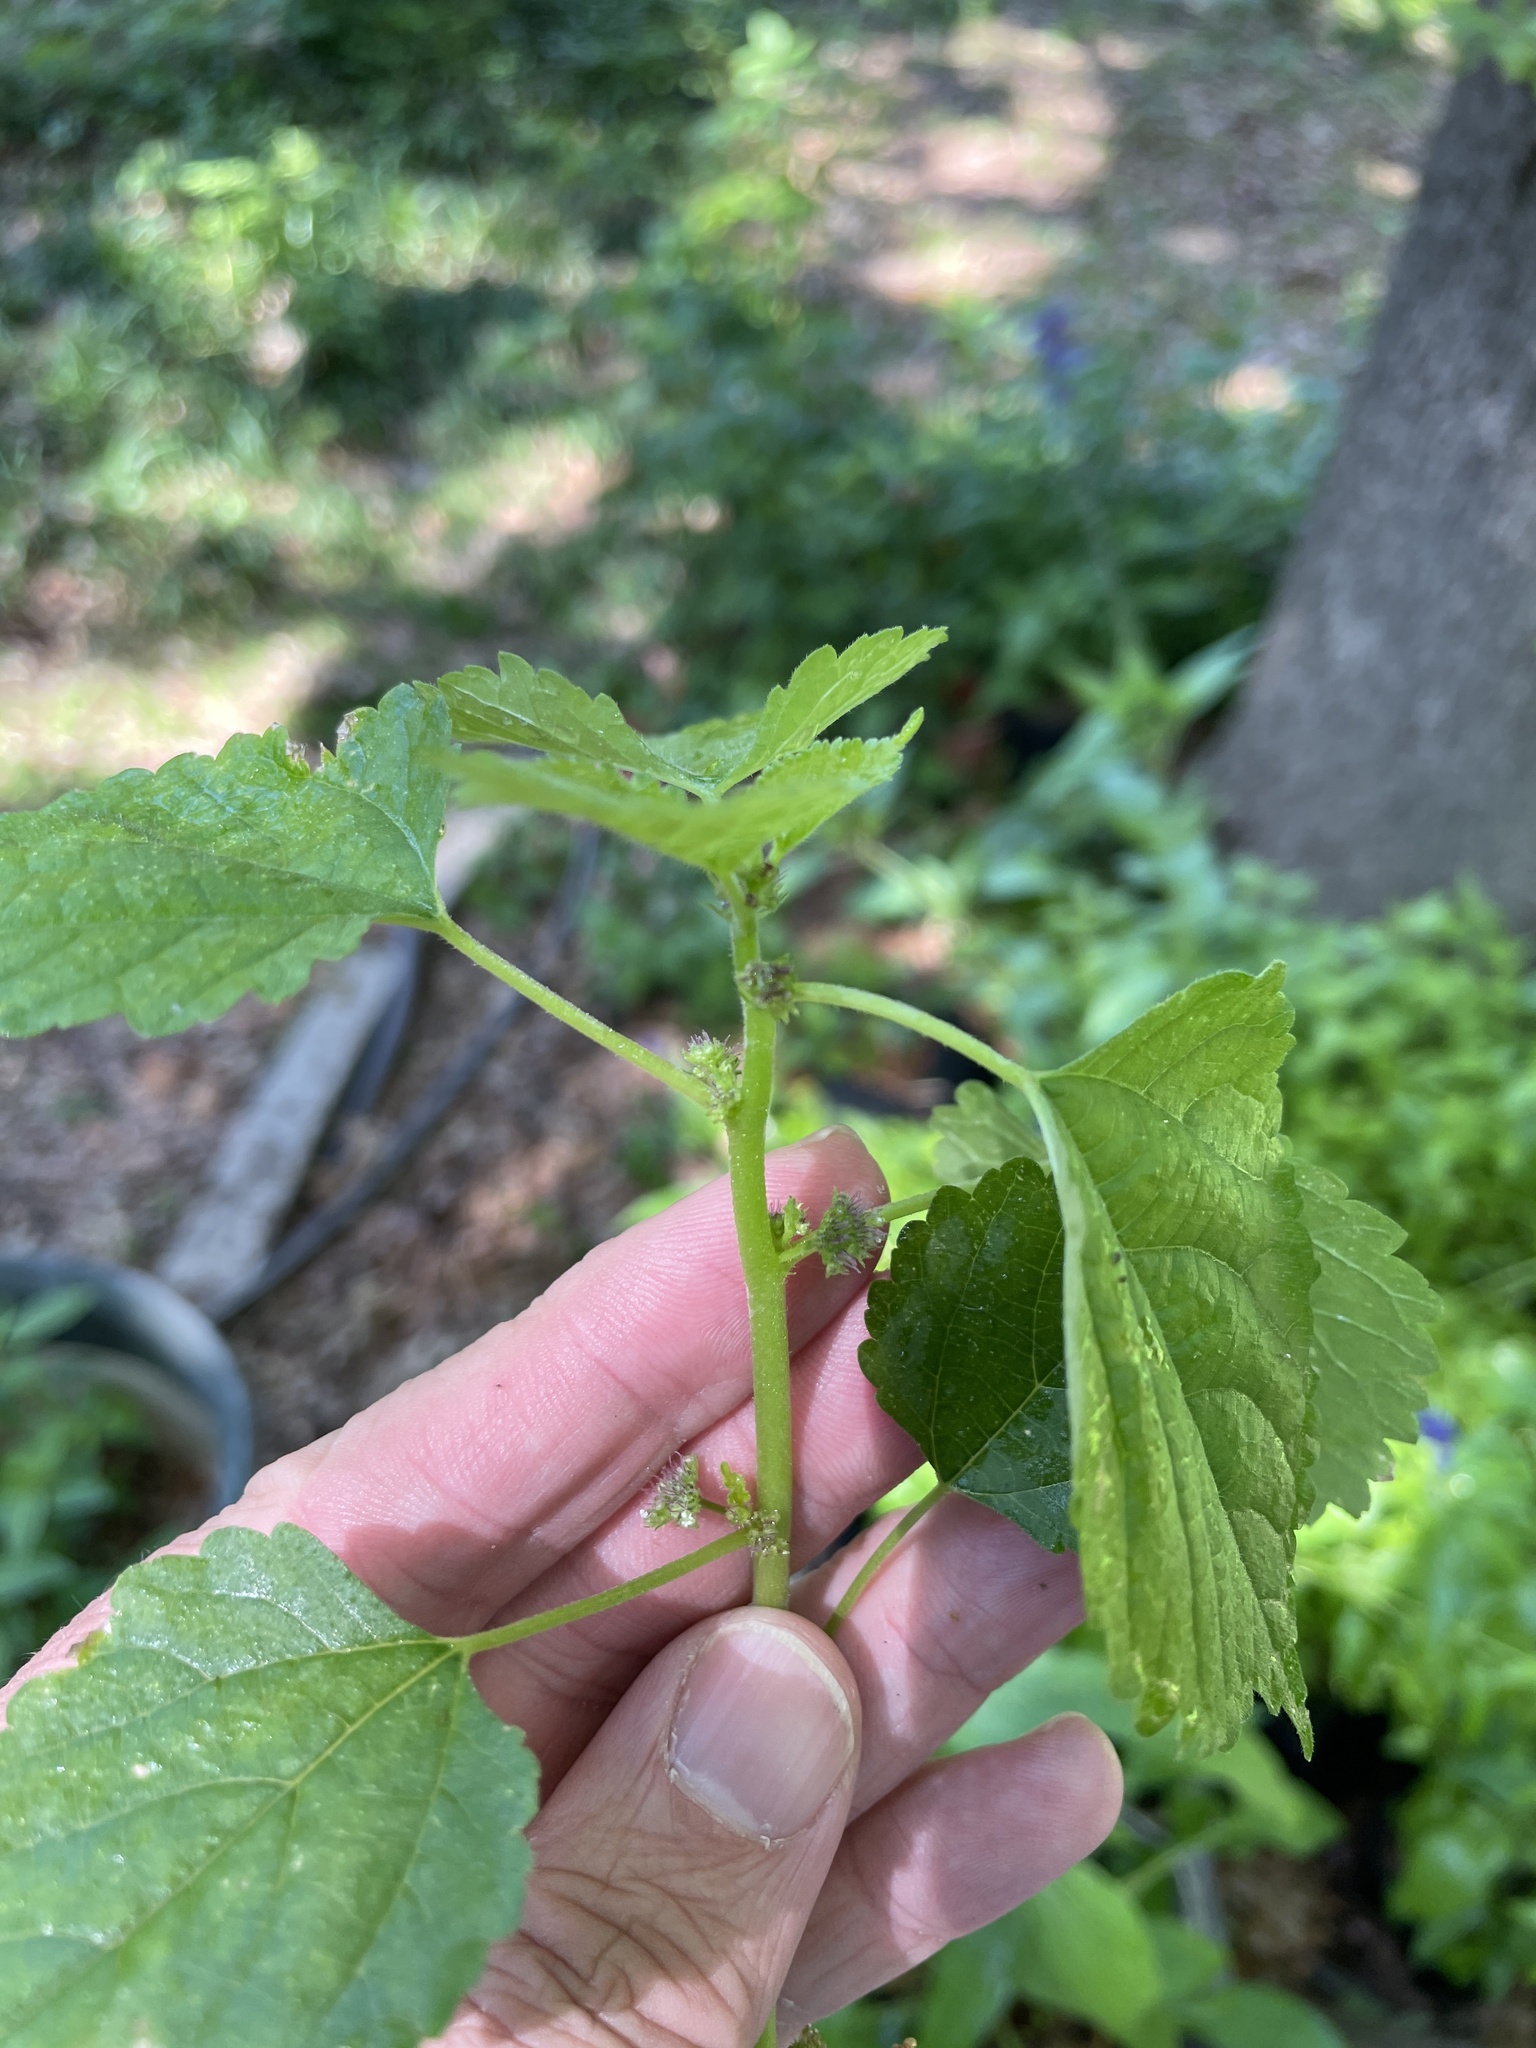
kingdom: Plantae
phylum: Tracheophyta
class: Magnoliopsida
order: Rosales
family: Moraceae
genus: Fatoua
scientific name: Fatoua villosa
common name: Hairy crabweed
